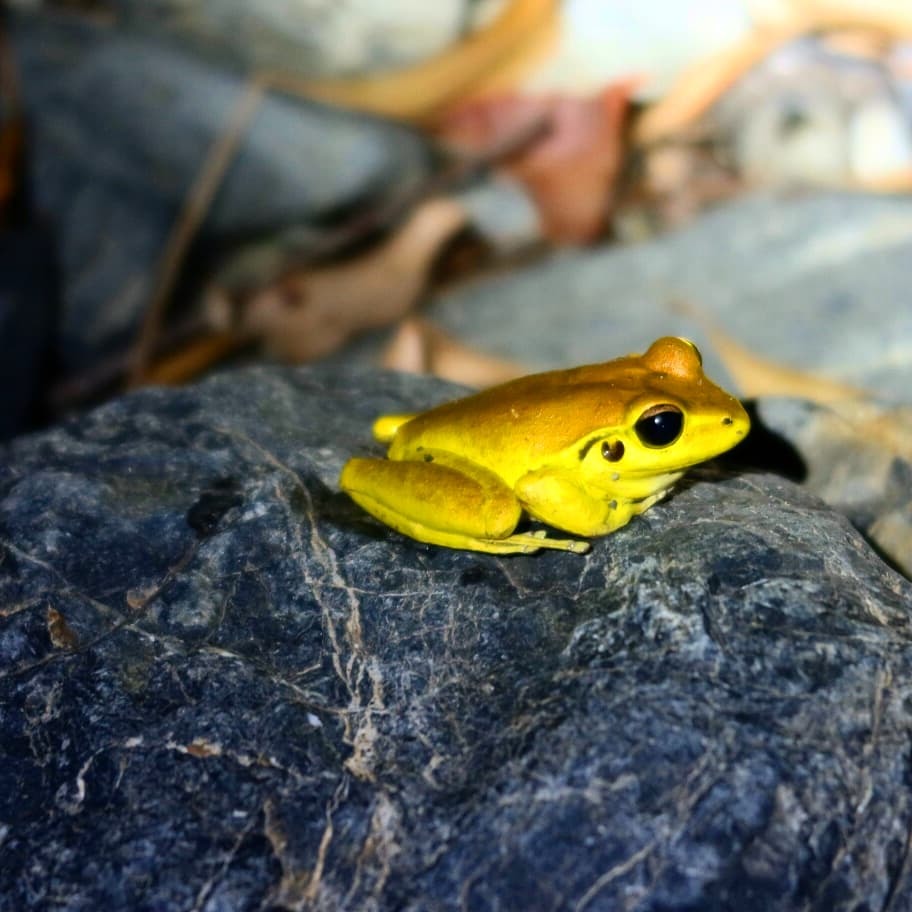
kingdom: Animalia
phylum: Chordata
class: Amphibia
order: Anura
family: Pelodryadidae
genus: Ranoidea
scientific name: Ranoidea wilcoxii
